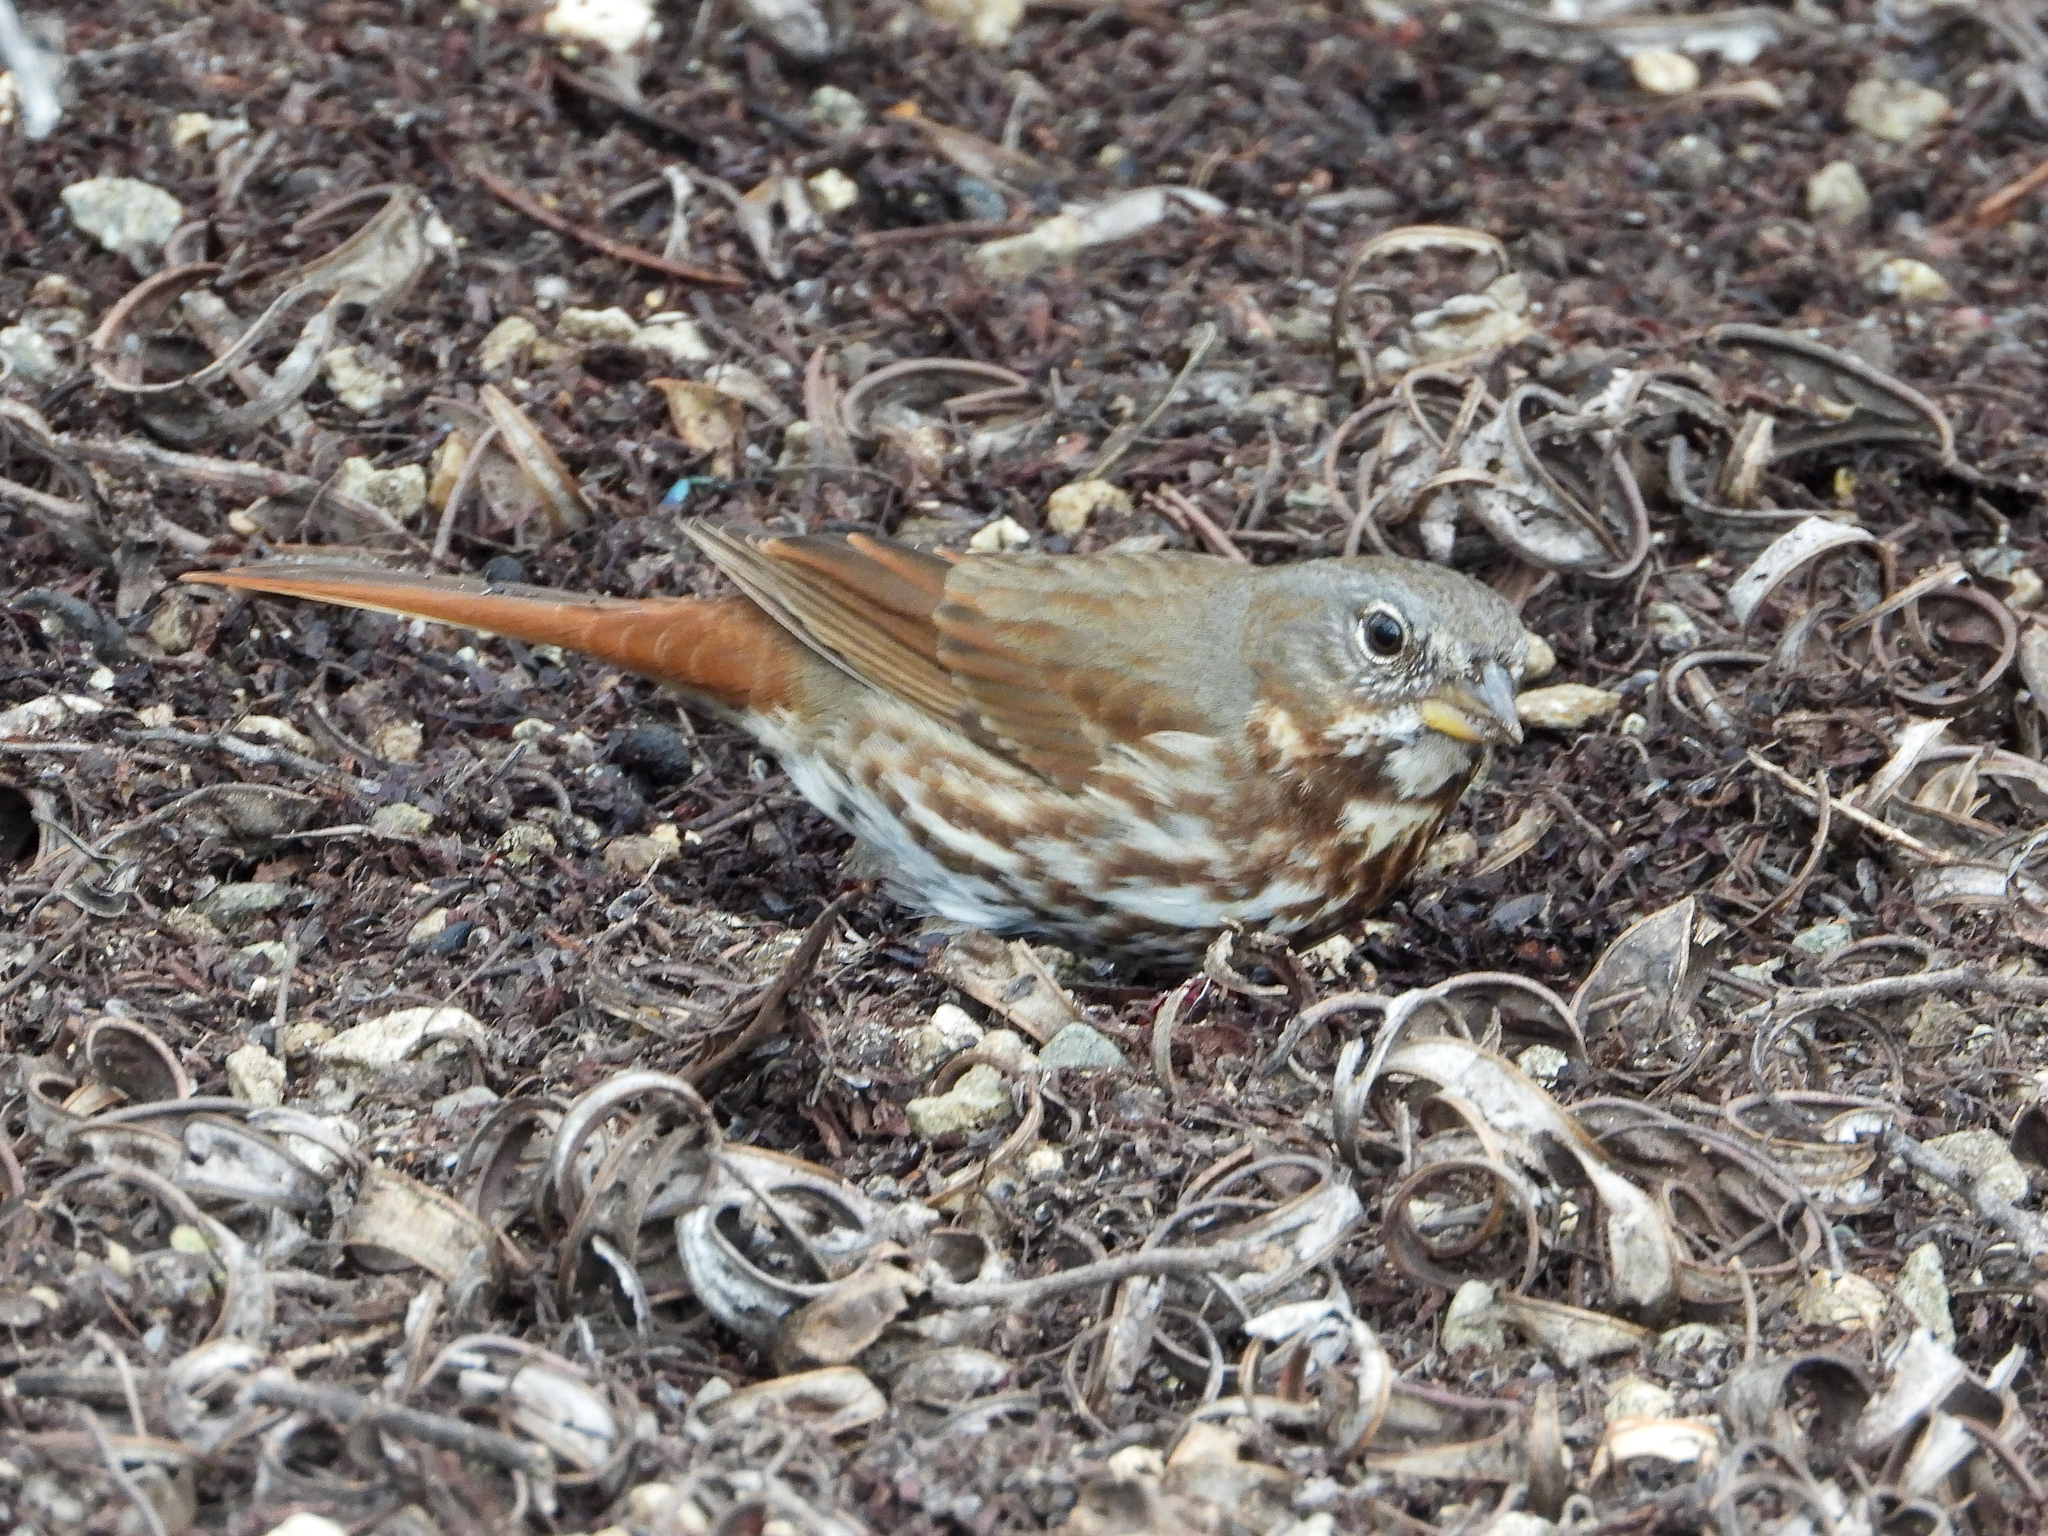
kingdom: Animalia
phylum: Chordata
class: Aves
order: Passeriformes
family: Passerellidae
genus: Passerella
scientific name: Passerella iliaca
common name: Fox sparrow
